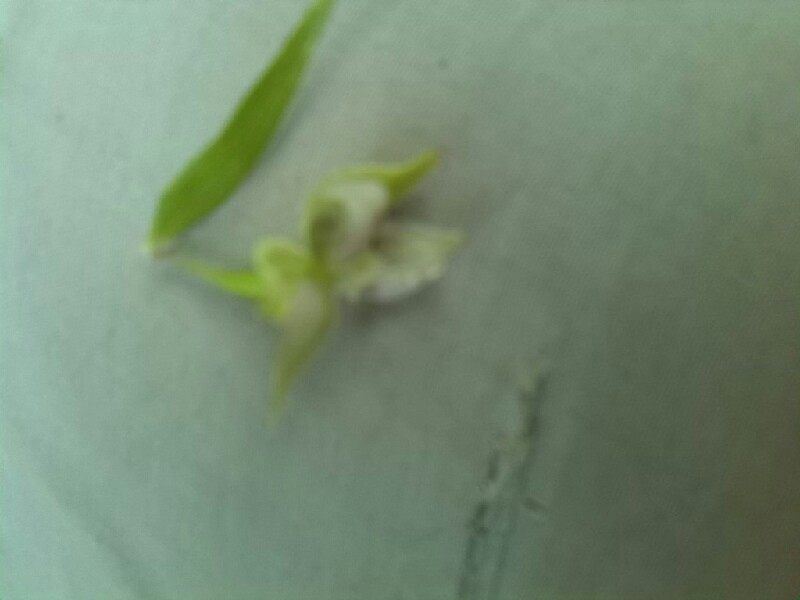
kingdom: Plantae
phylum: Tracheophyta
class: Liliopsida
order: Asparagales
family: Orchidaceae
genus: Epipactis
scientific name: Epipactis helleborine
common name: Broad-leaved helleborine
